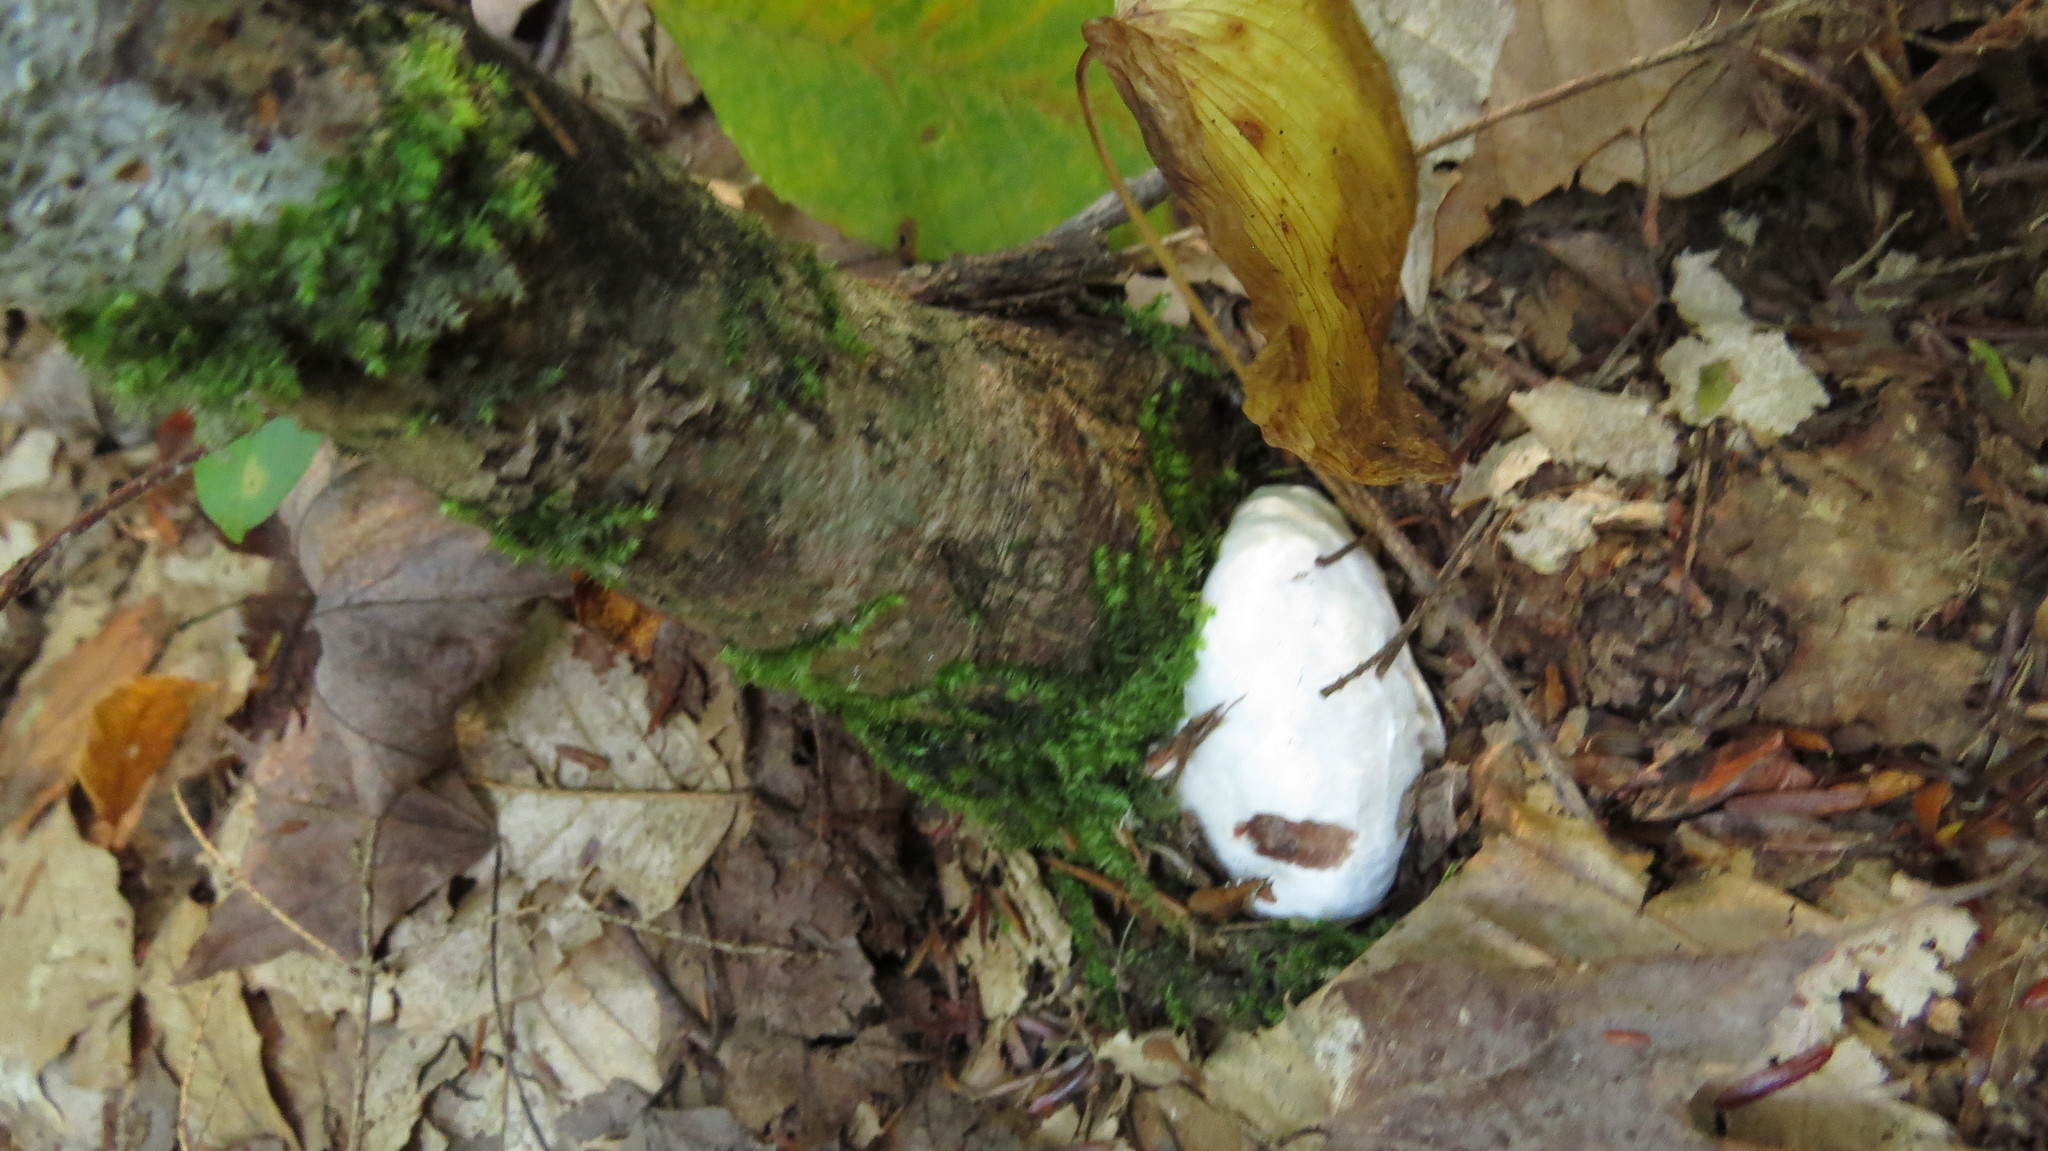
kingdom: Fungi
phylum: Basidiomycota
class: Agaricomycetes
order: Agaricales
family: Entolomataceae
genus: Entoloma
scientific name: Entoloma abortivum
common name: Aborted entoloma
